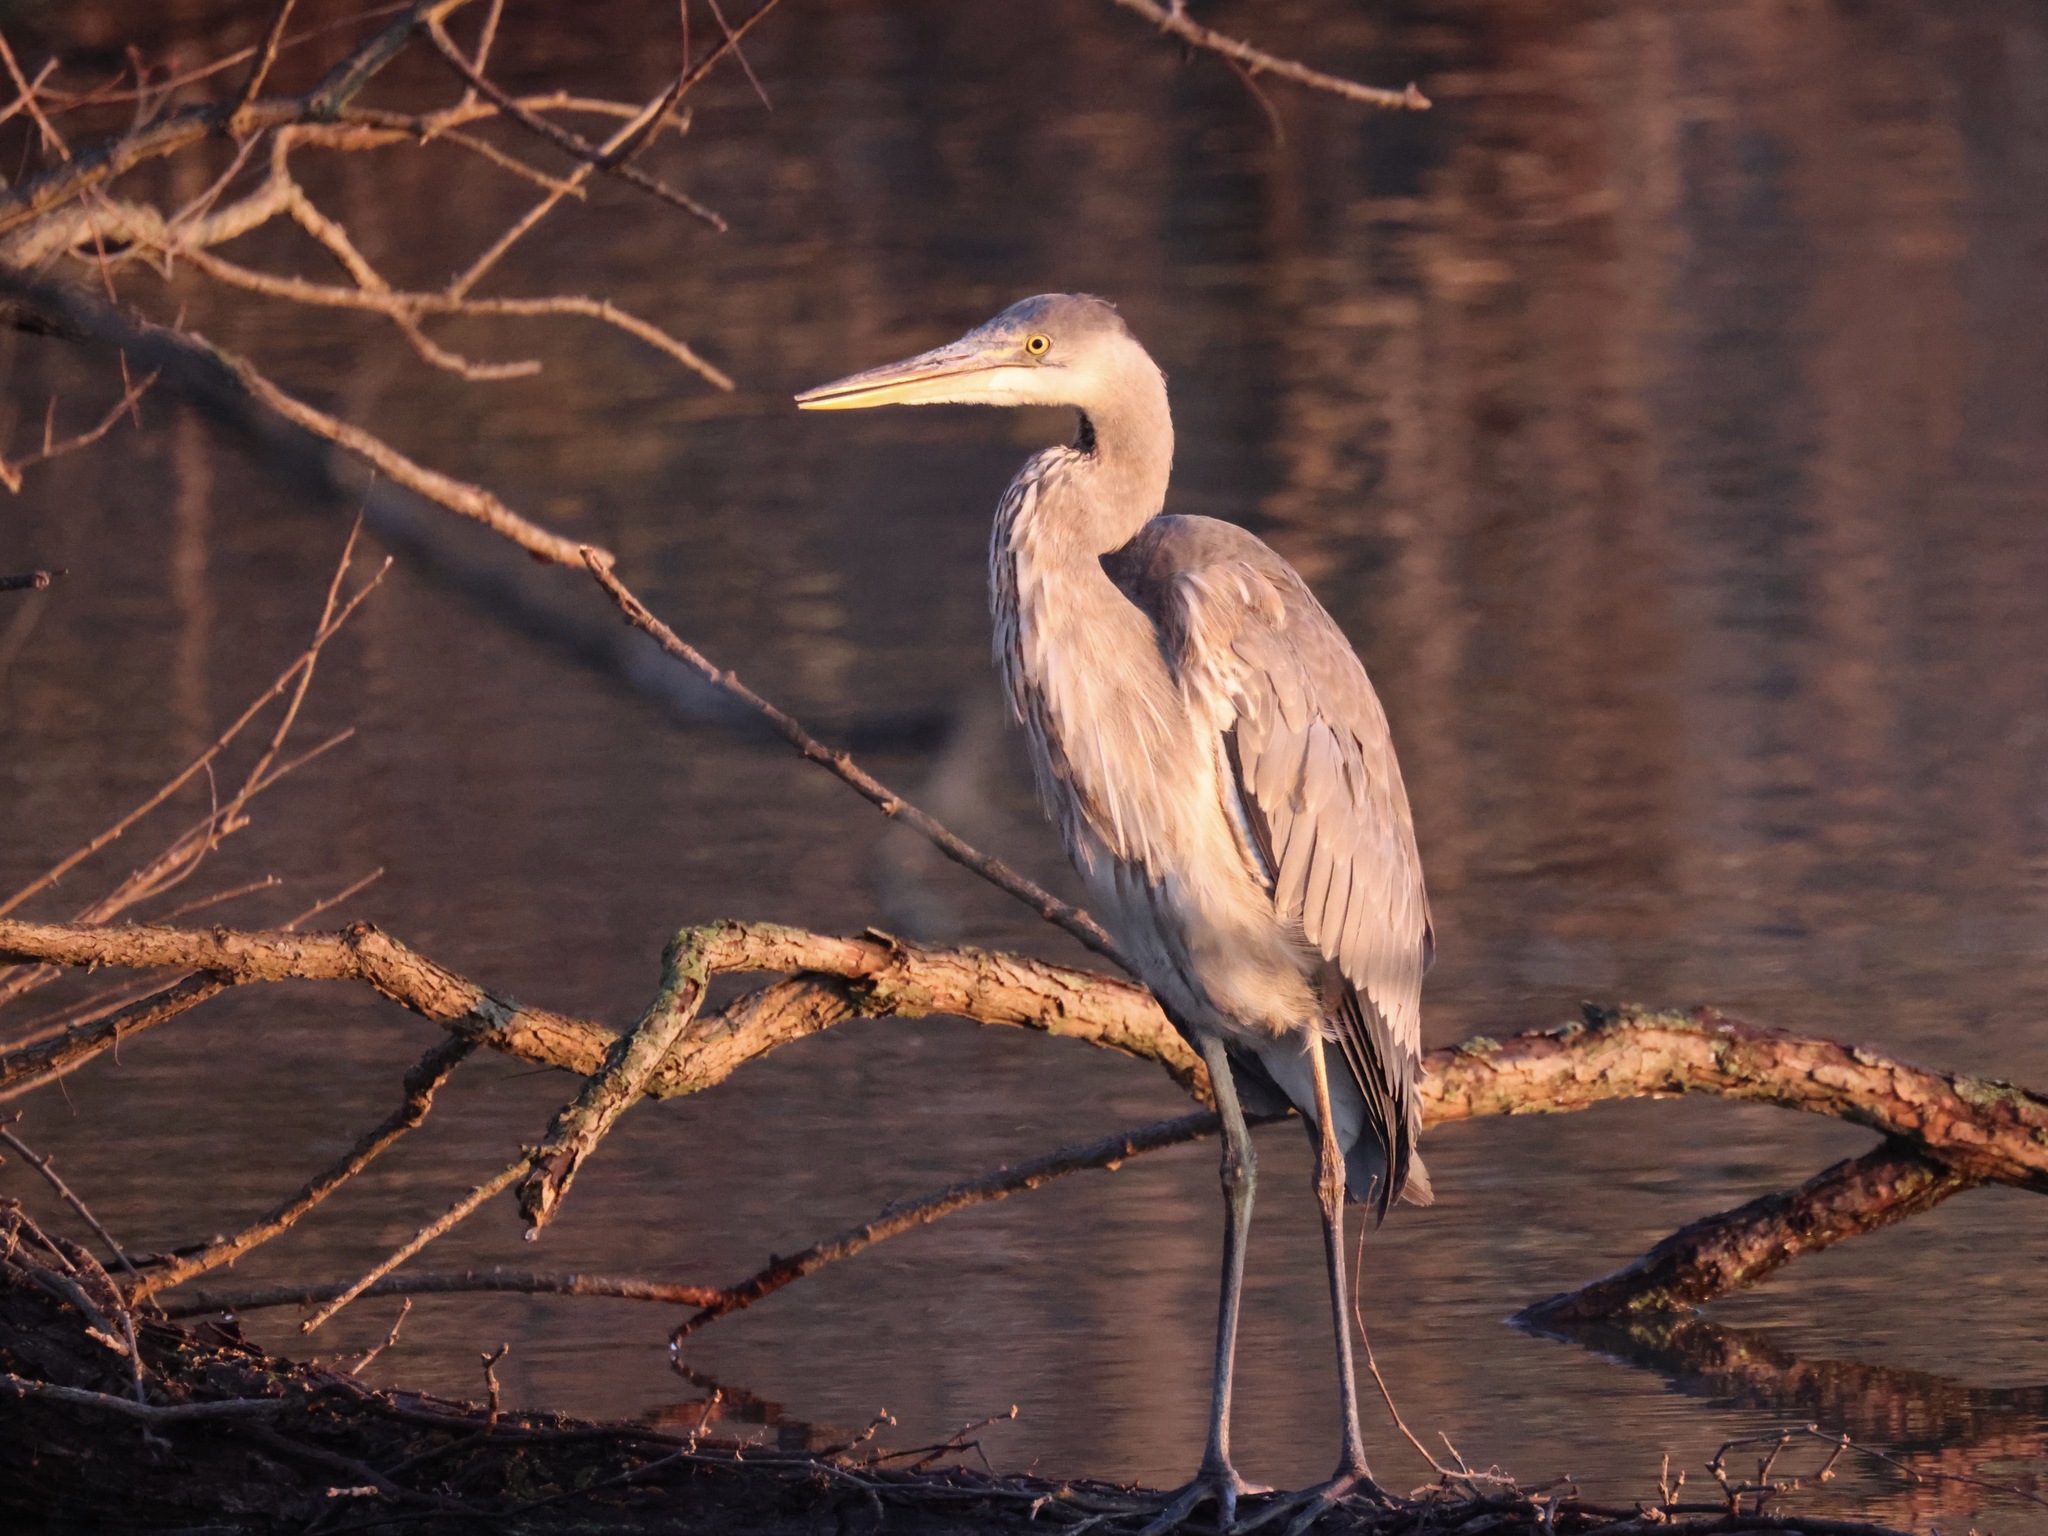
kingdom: Animalia
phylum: Chordata
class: Aves
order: Pelecaniformes
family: Ardeidae
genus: Ardea
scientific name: Ardea herodias
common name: Great blue heron
